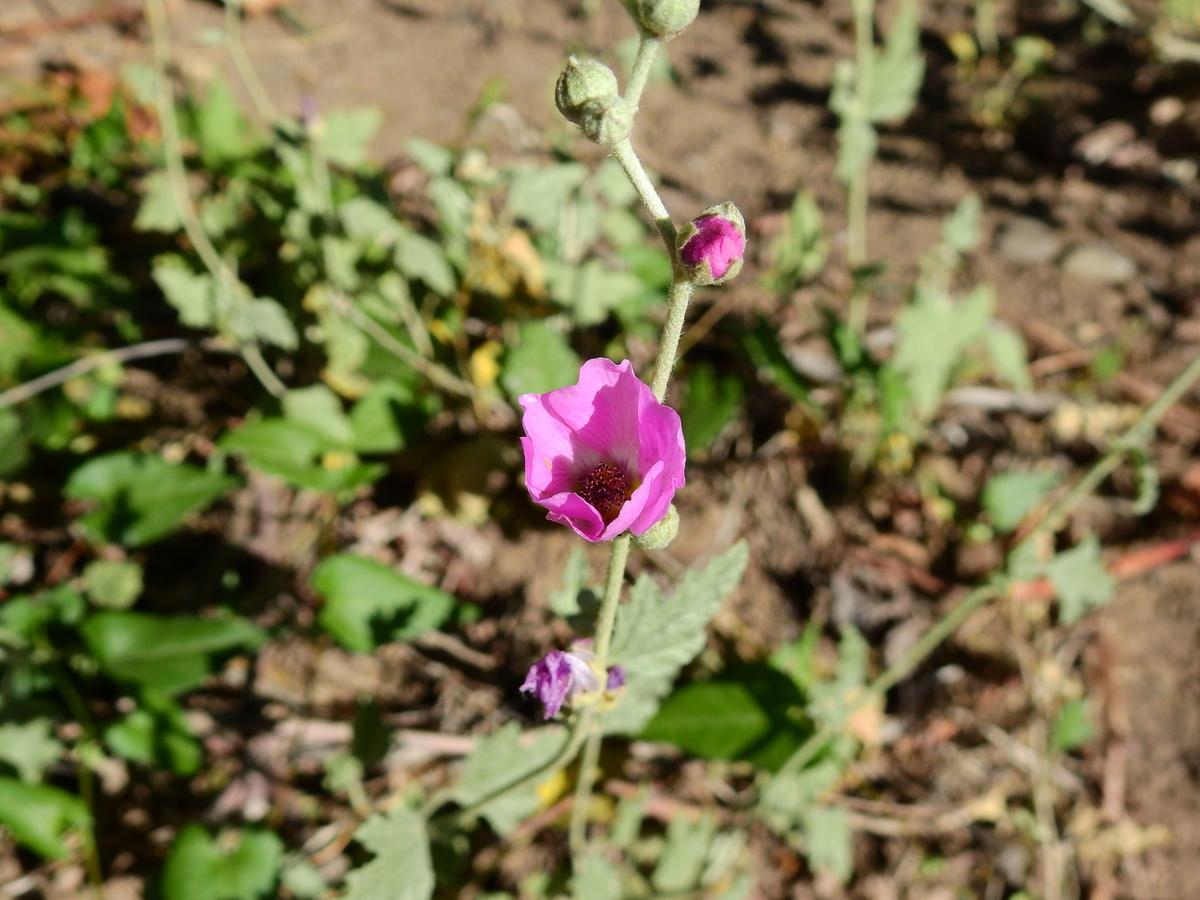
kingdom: Plantae
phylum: Tracheophyta
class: Magnoliopsida
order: Malvales
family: Malvaceae
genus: Sphaeralcea
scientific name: Sphaeralcea mendocina
